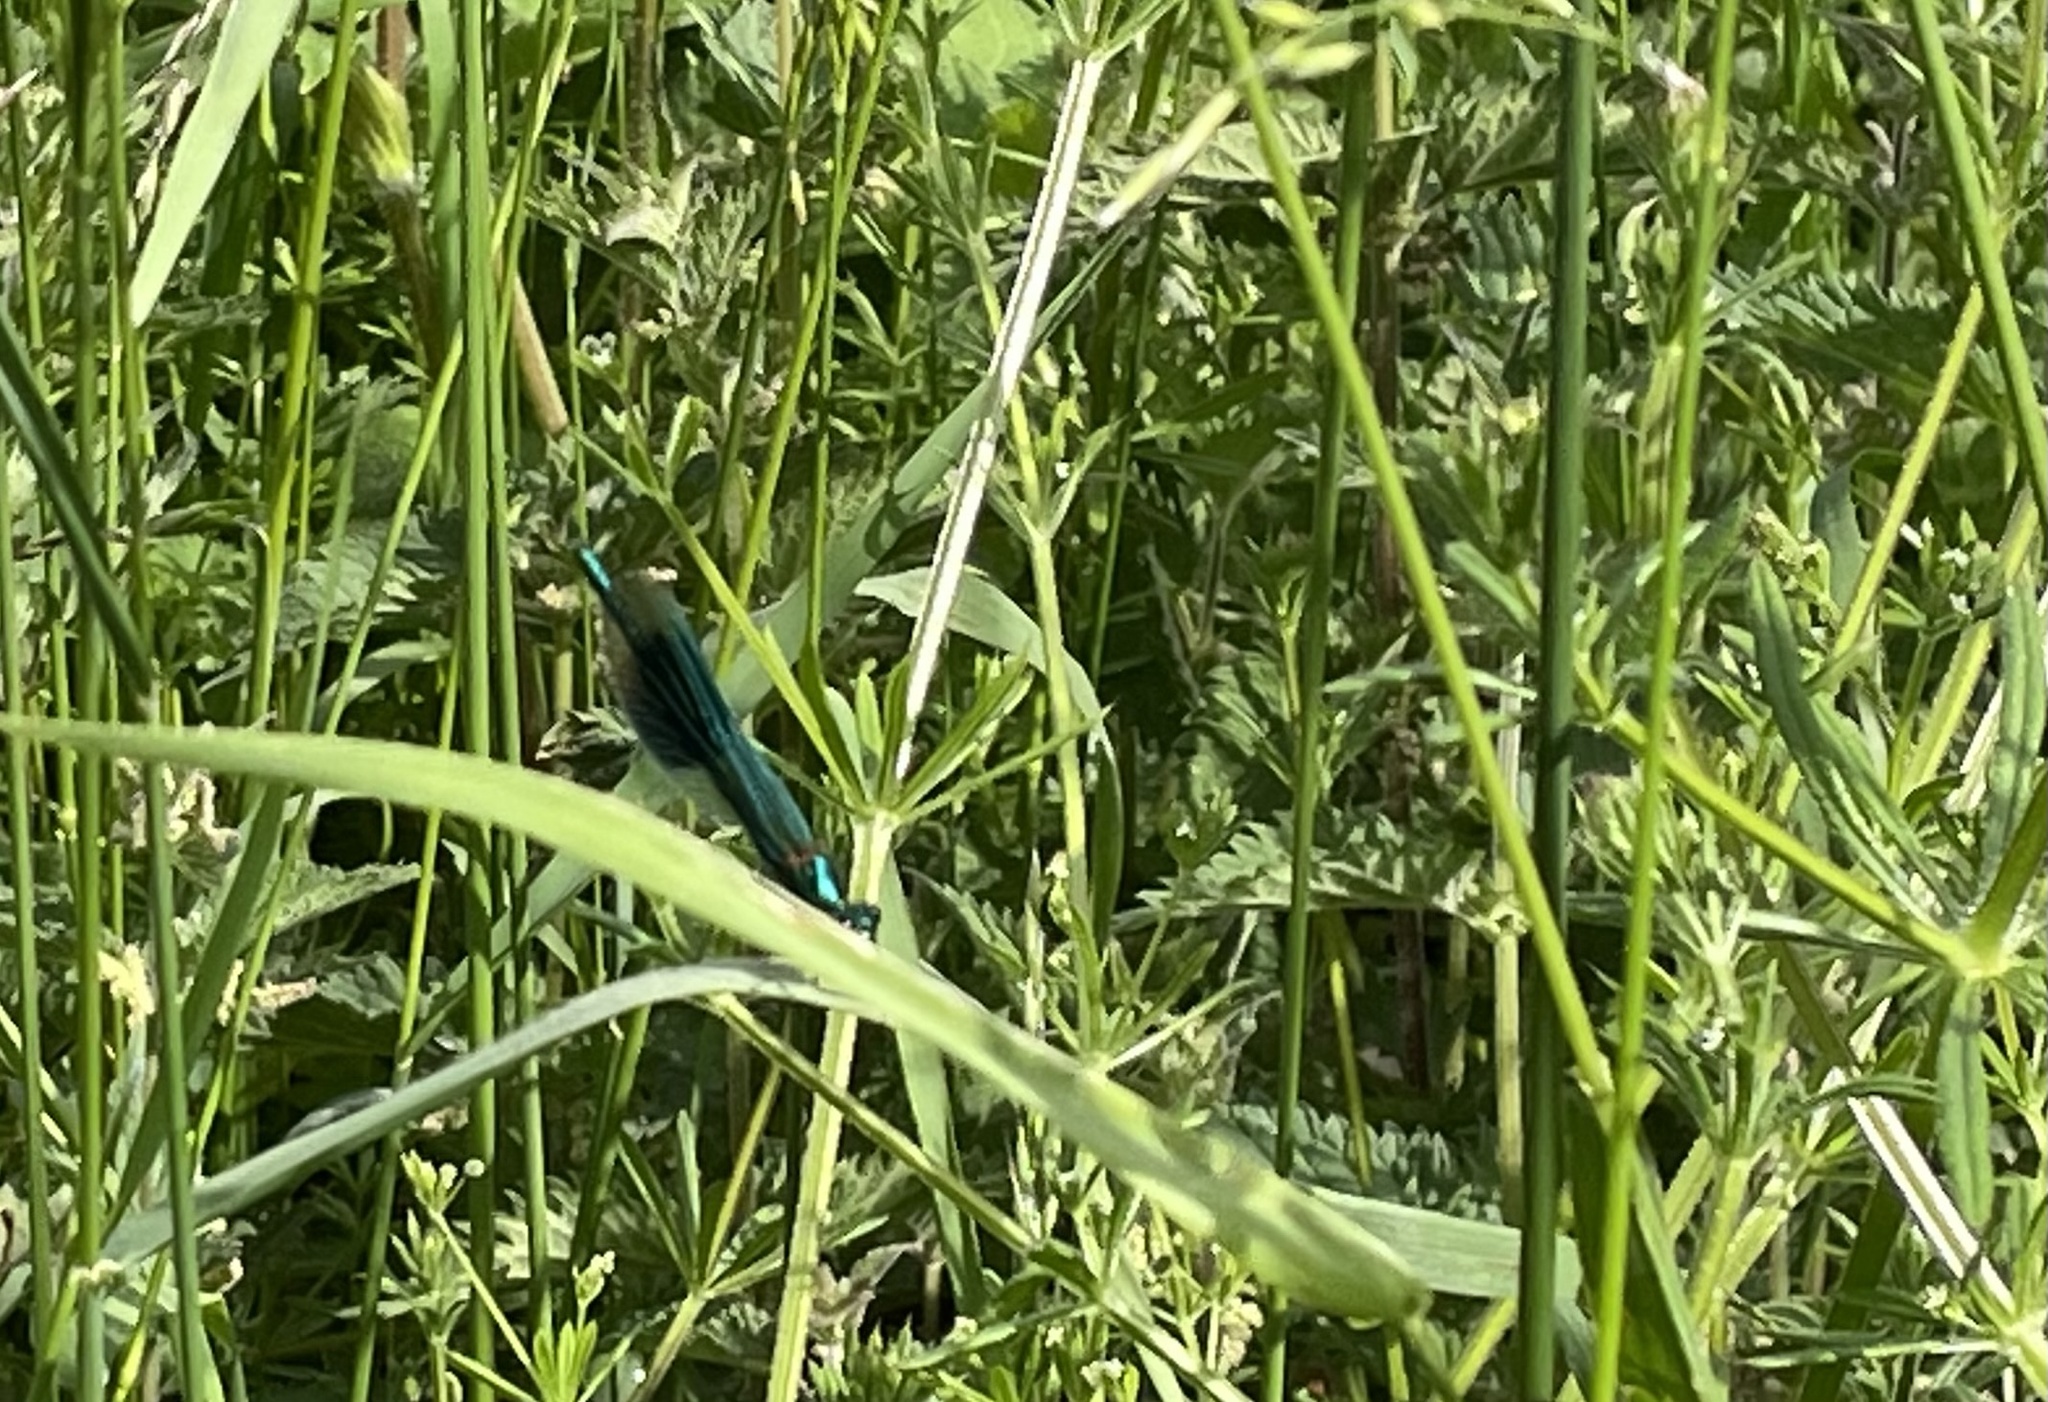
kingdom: Animalia
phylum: Arthropoda
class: Insecta
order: Odonata
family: Calopterygidae
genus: Calopteryx
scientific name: Calopteryx splendens
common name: Banded demoiselle
